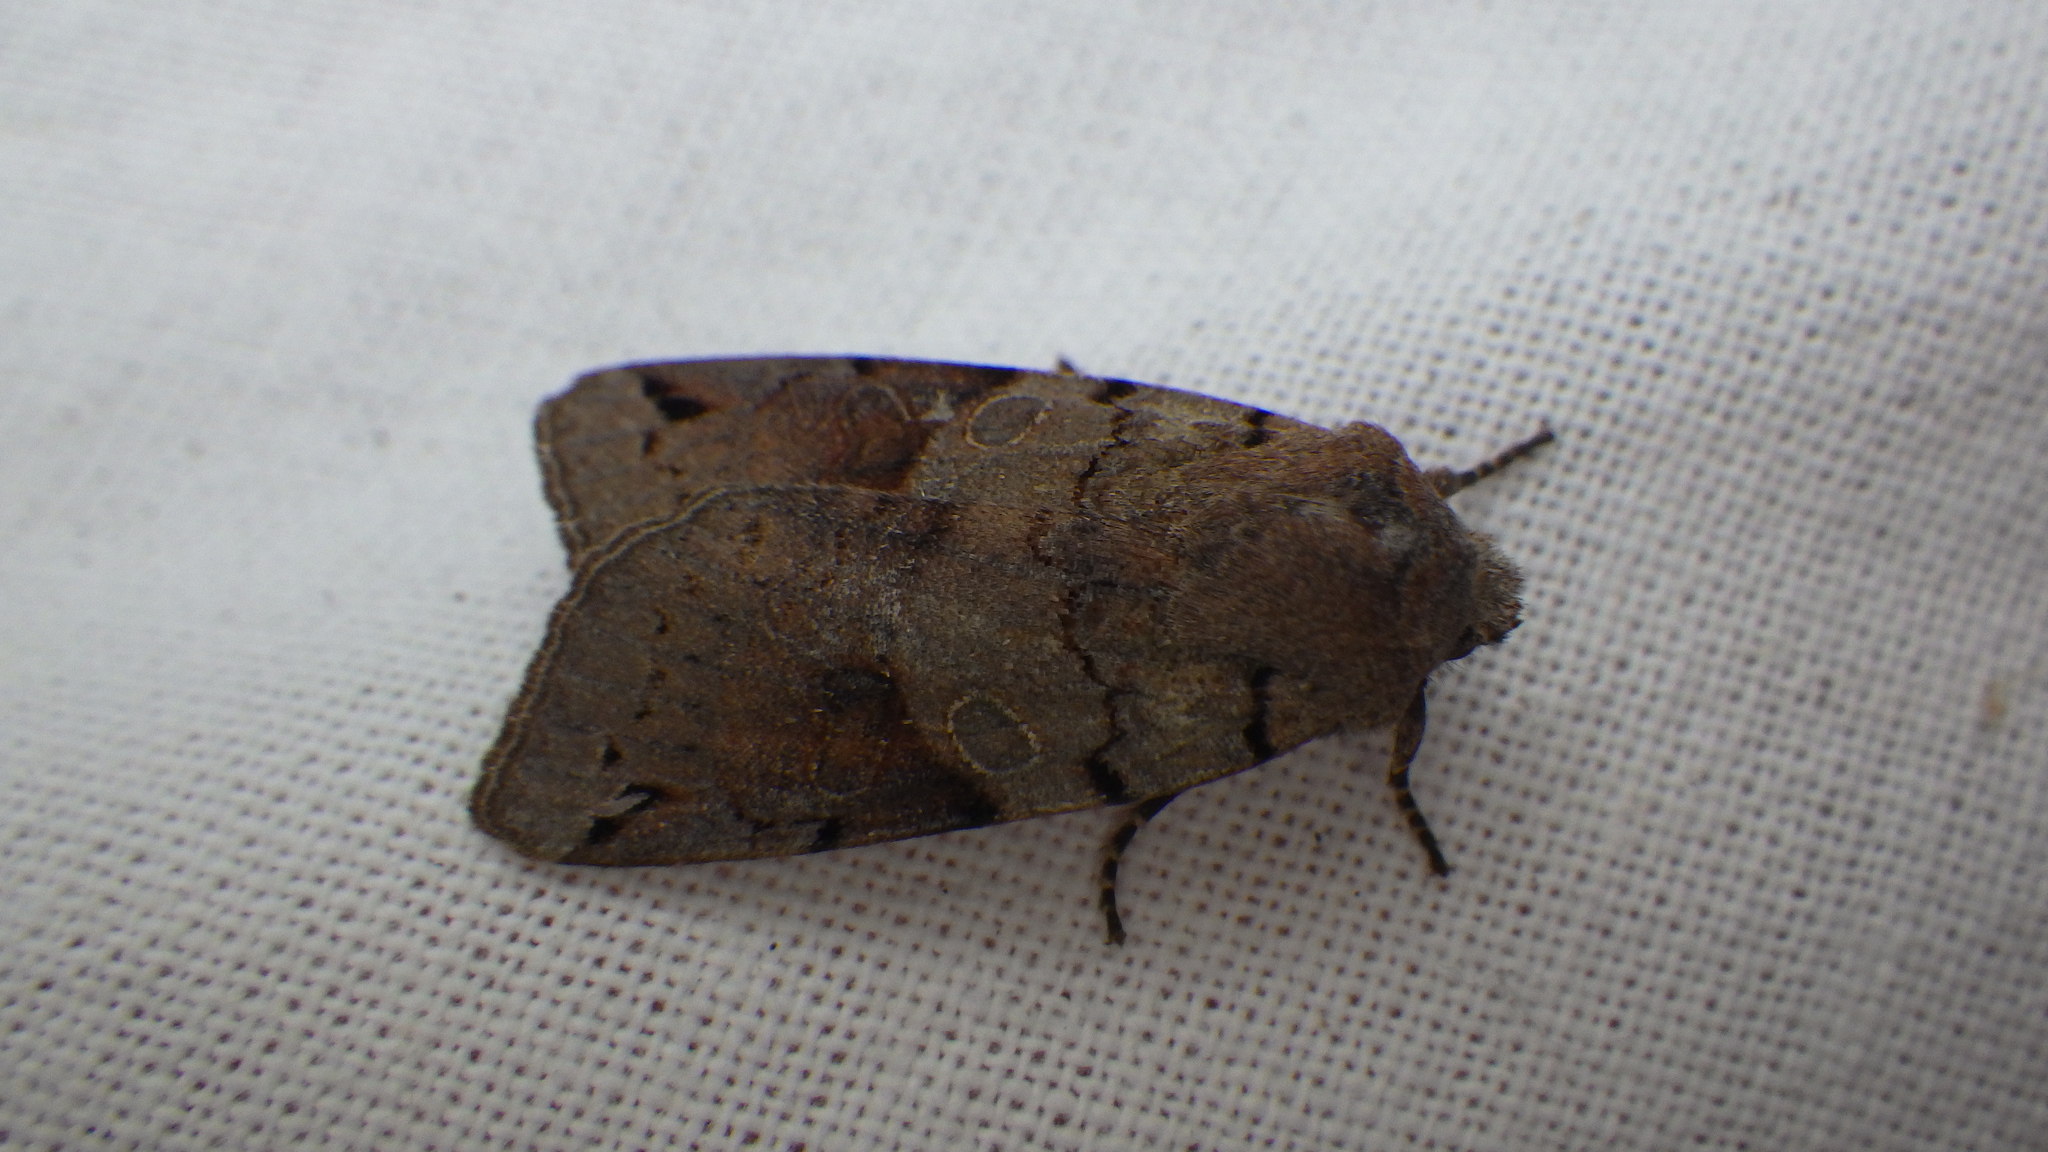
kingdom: Animalia
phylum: Arthropoda
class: Insecta
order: Lepidoptera
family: Noctuidae
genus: Agrochola
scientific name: Agrochola litura
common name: Brown-spot pinion
